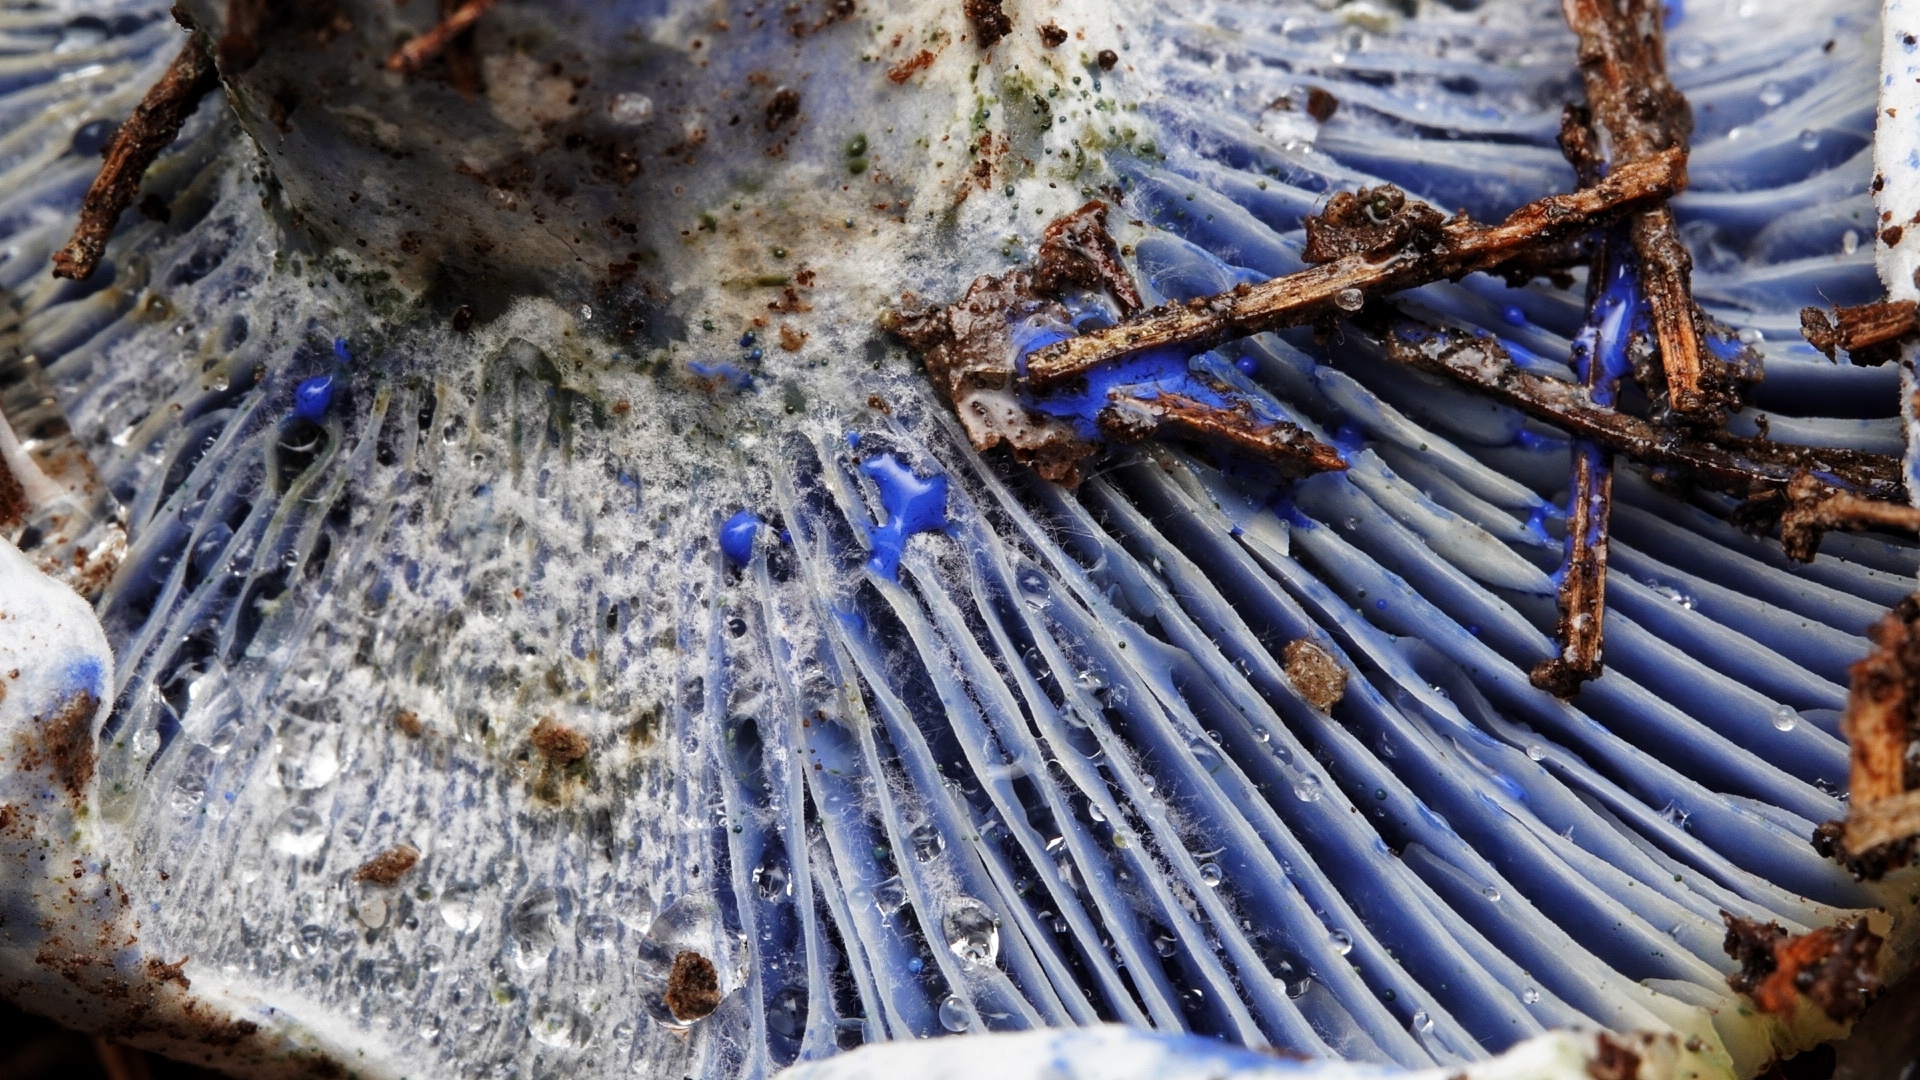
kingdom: Fungi
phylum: Basidiomycota
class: Agaricomycetes
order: Russulales
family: Russulaceae
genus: Lactarius
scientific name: Lactarius indigo
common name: Indigo milk cap
